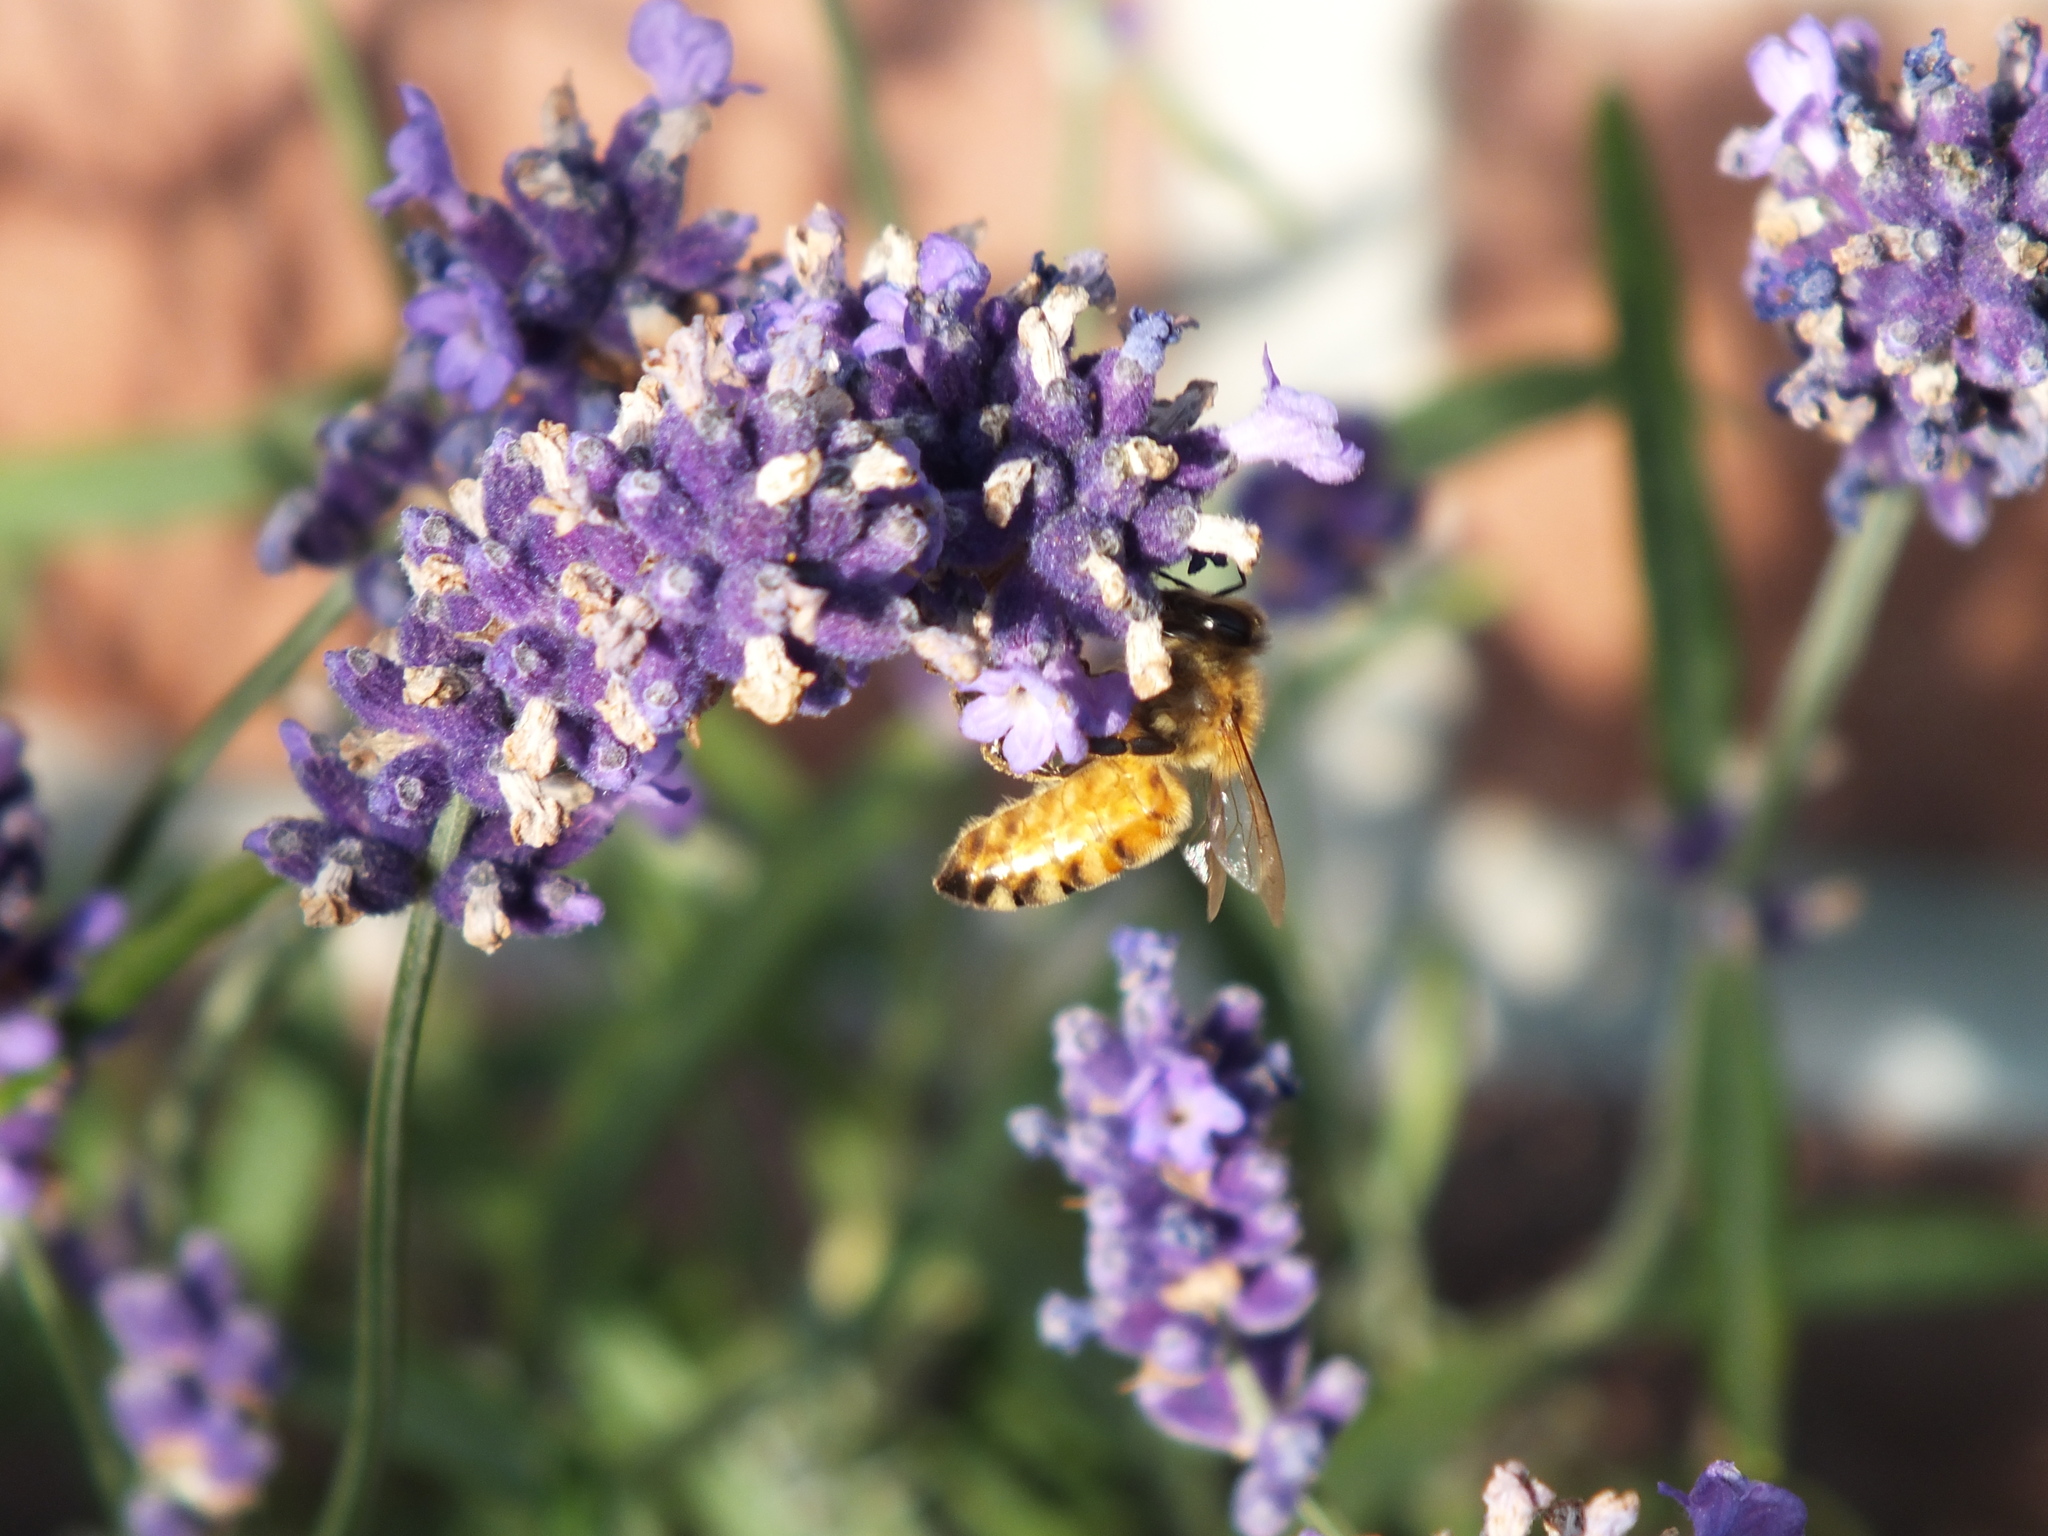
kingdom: Animalia
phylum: Arthropoda
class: Insecta
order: Hymenoptera
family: Apidae
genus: Apis
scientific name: Apis mellifera
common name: Honey bee
